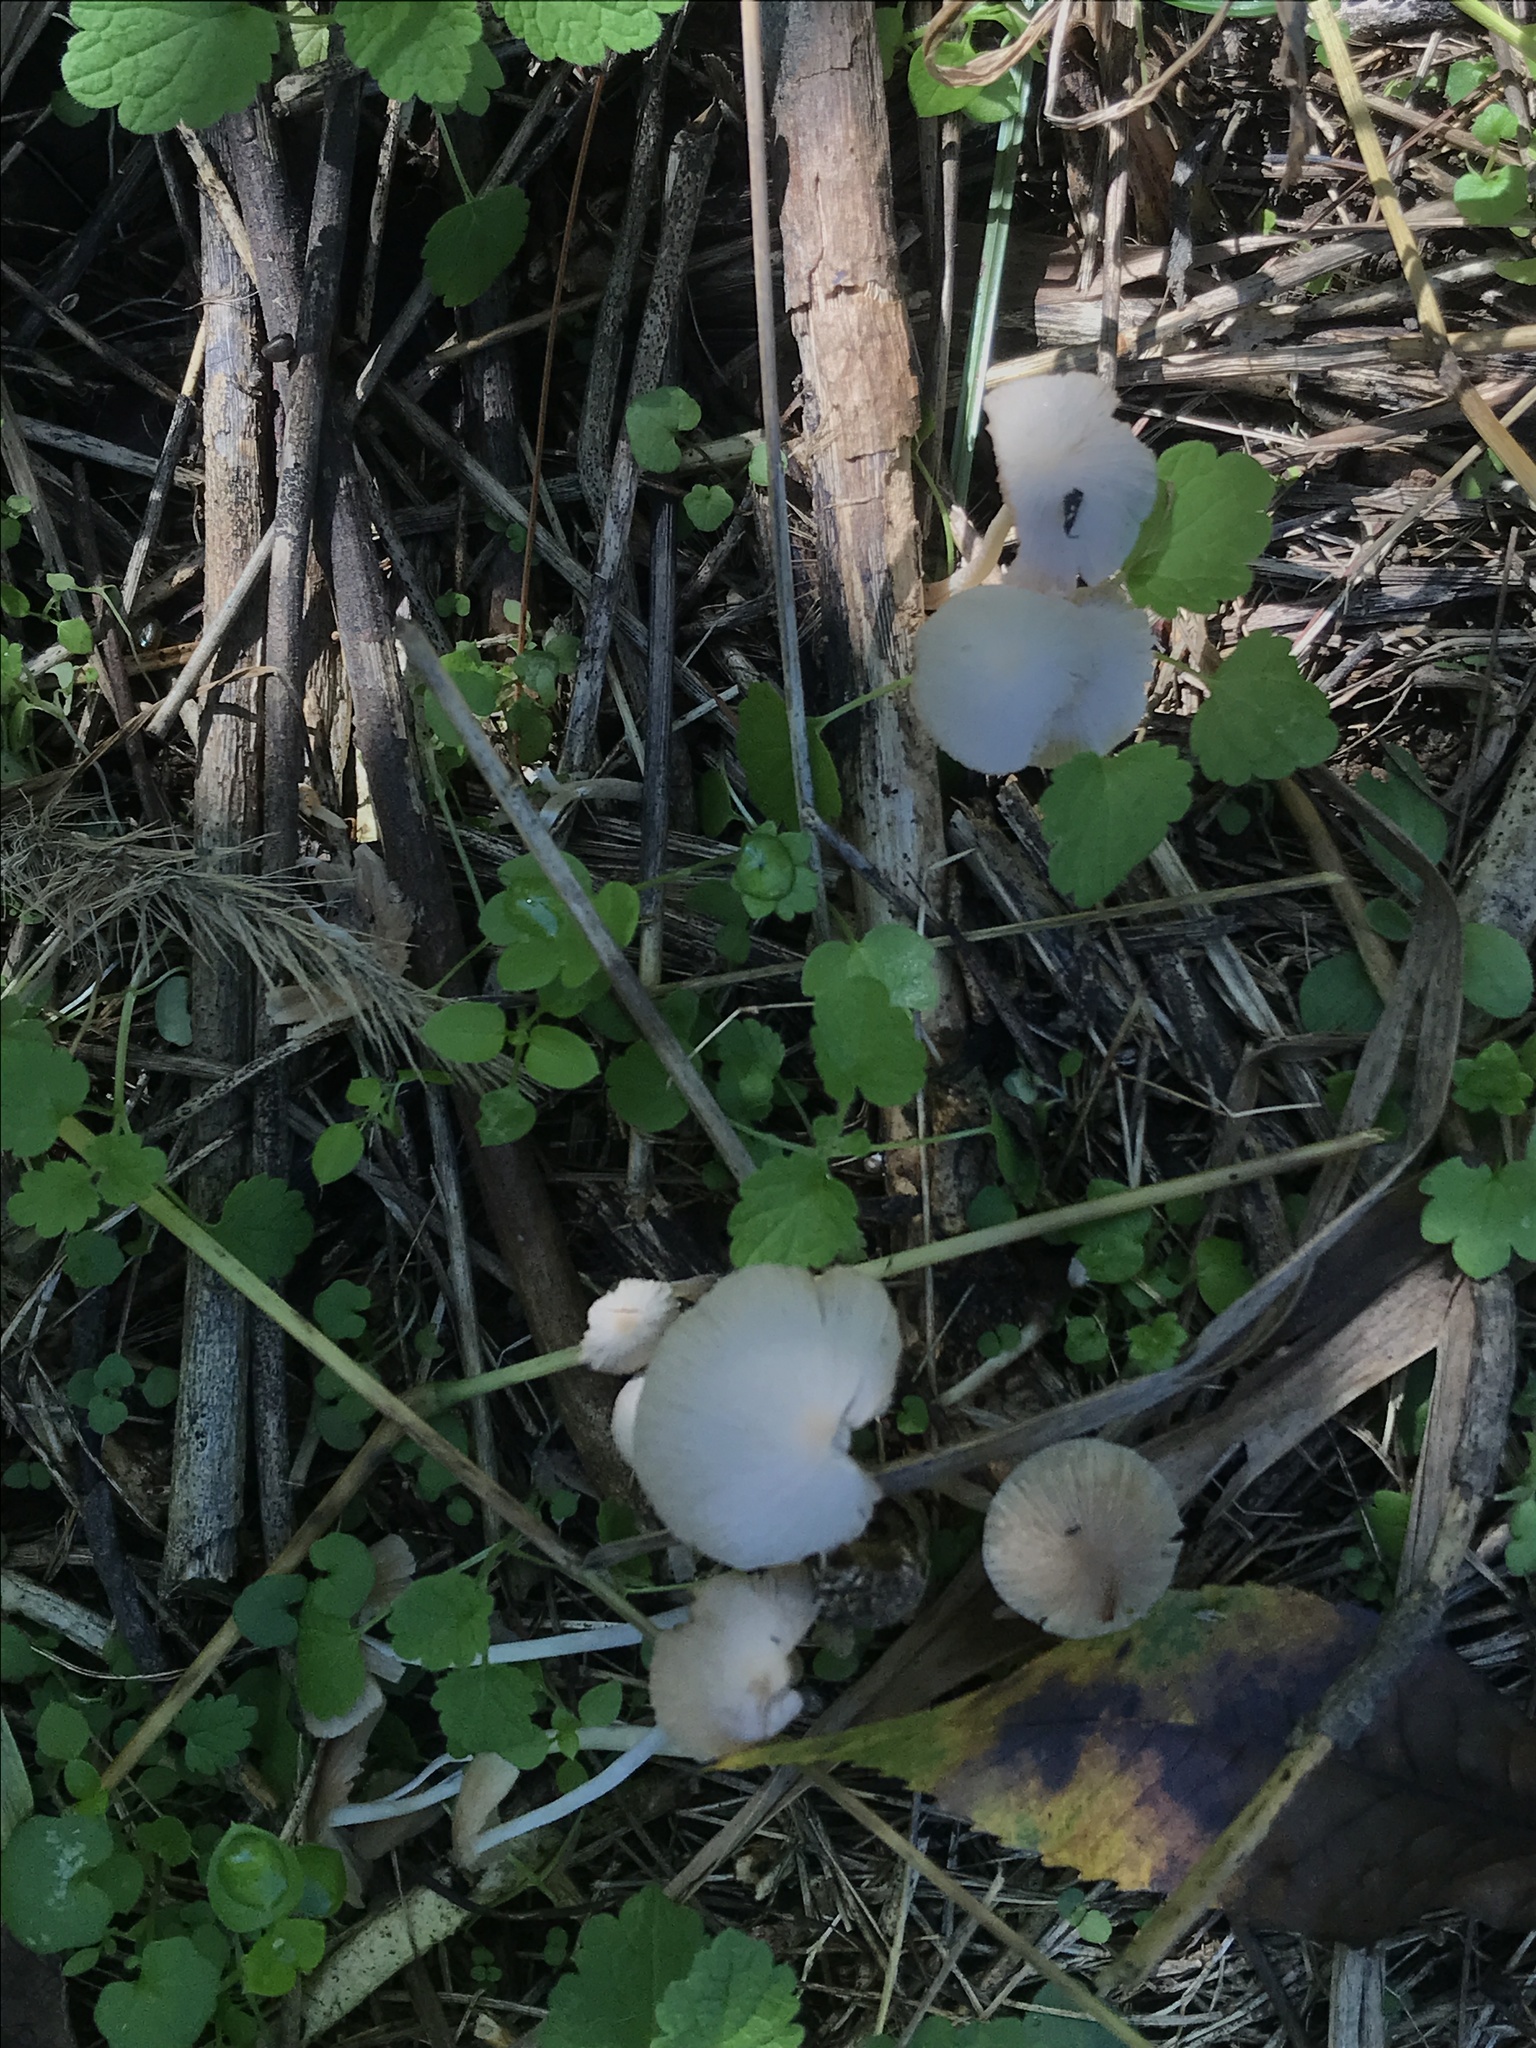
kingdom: Fungi
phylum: Basidiomycota
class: Agaricomycetes
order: Agaricales
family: Psathyrellaceae
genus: Candolleomyces
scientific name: Candolleomyces luteopallidus
